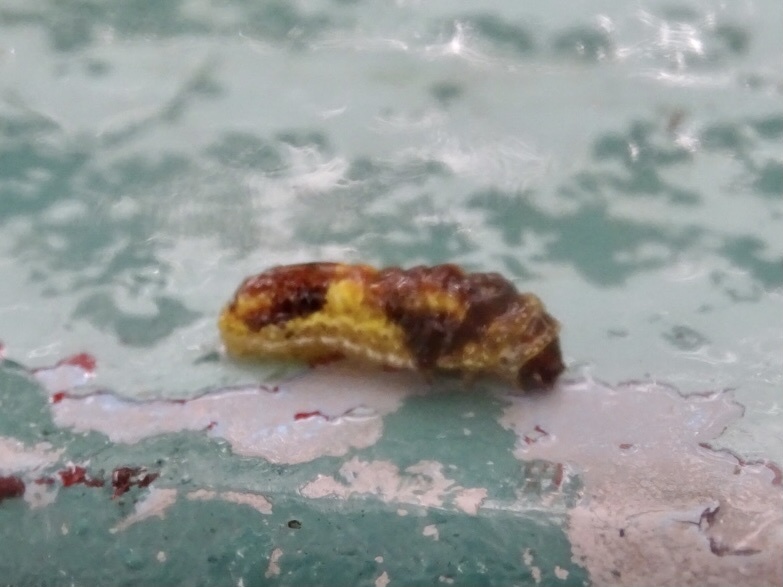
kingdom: Animalia
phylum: Arthropoda
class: Insecta
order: Lepidoptera
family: Phaudidae
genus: Phauda
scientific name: Phauda flammans
